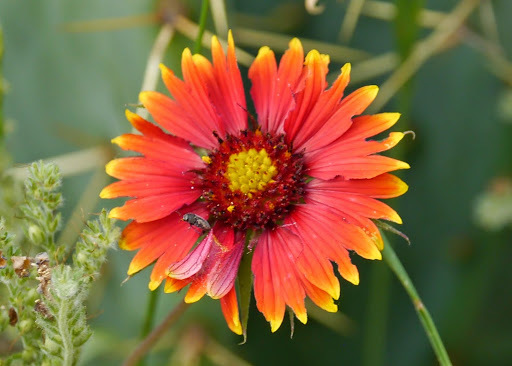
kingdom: Plantae
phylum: Tracheophyta
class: Magnoliopsida
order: Asterales
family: Asteraceae
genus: Gaillardia
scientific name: Gaillardia pulchella
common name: Firewheel
